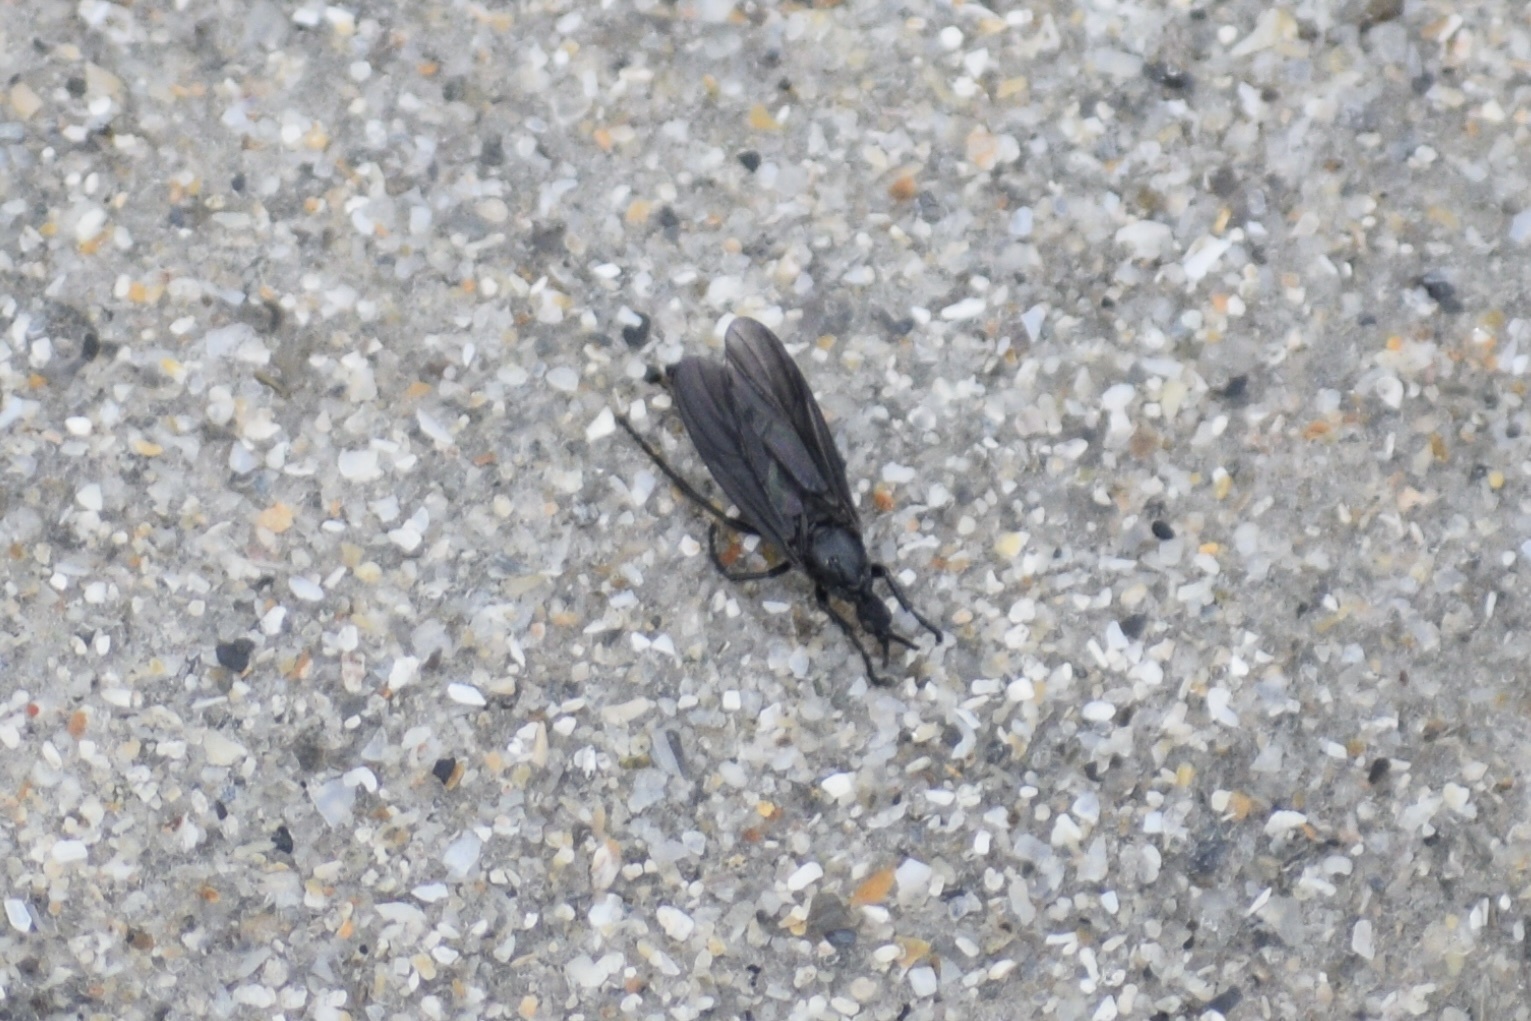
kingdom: Animalia
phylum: Arthropoda
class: Insecta
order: Diptera
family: Bibionidae
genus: Dilophus
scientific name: Dilophus orbatus
